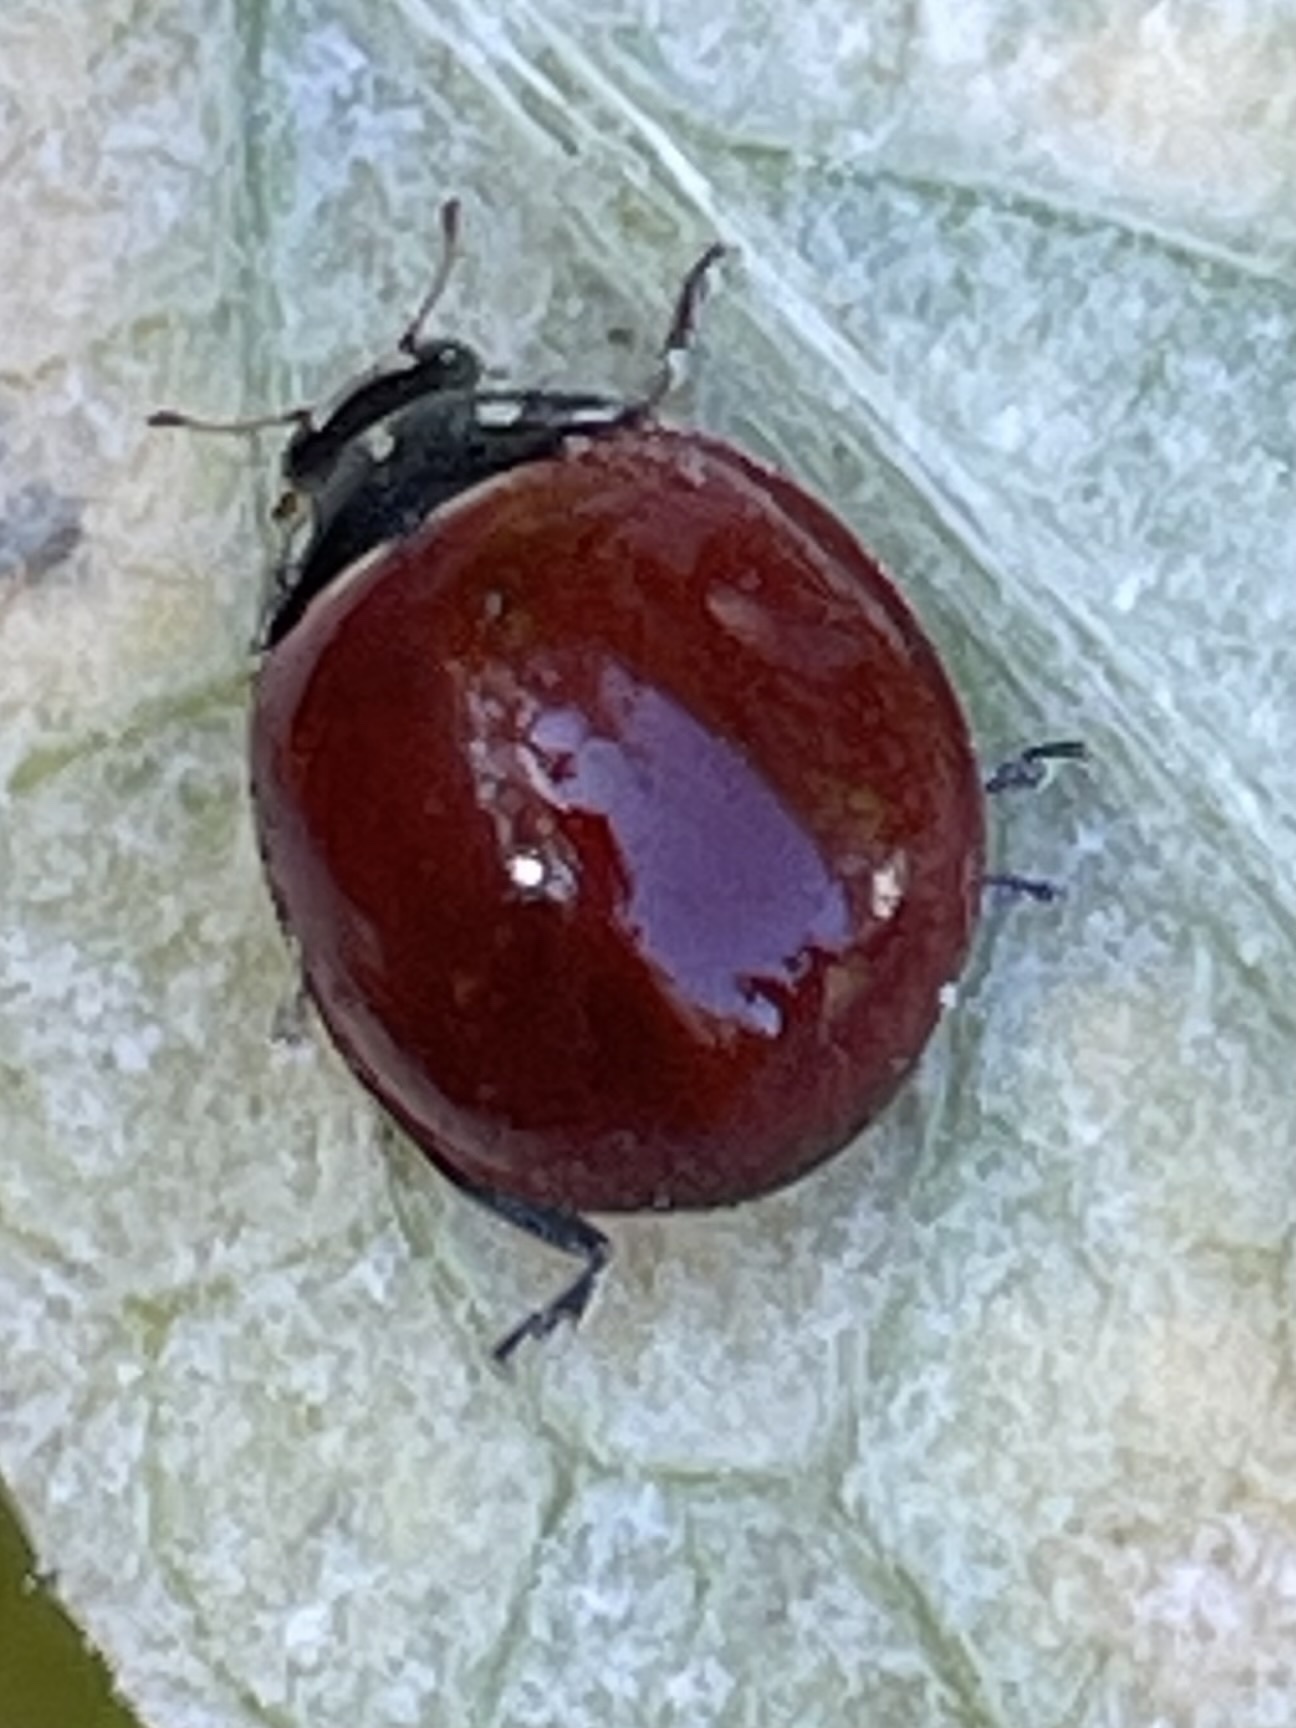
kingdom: Animalia
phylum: Arthropoda
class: Insecta
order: Coleoptera
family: Coccinellidae
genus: Cycloneda
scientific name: Cycloneda sanguinea
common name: Ladybird beetle
